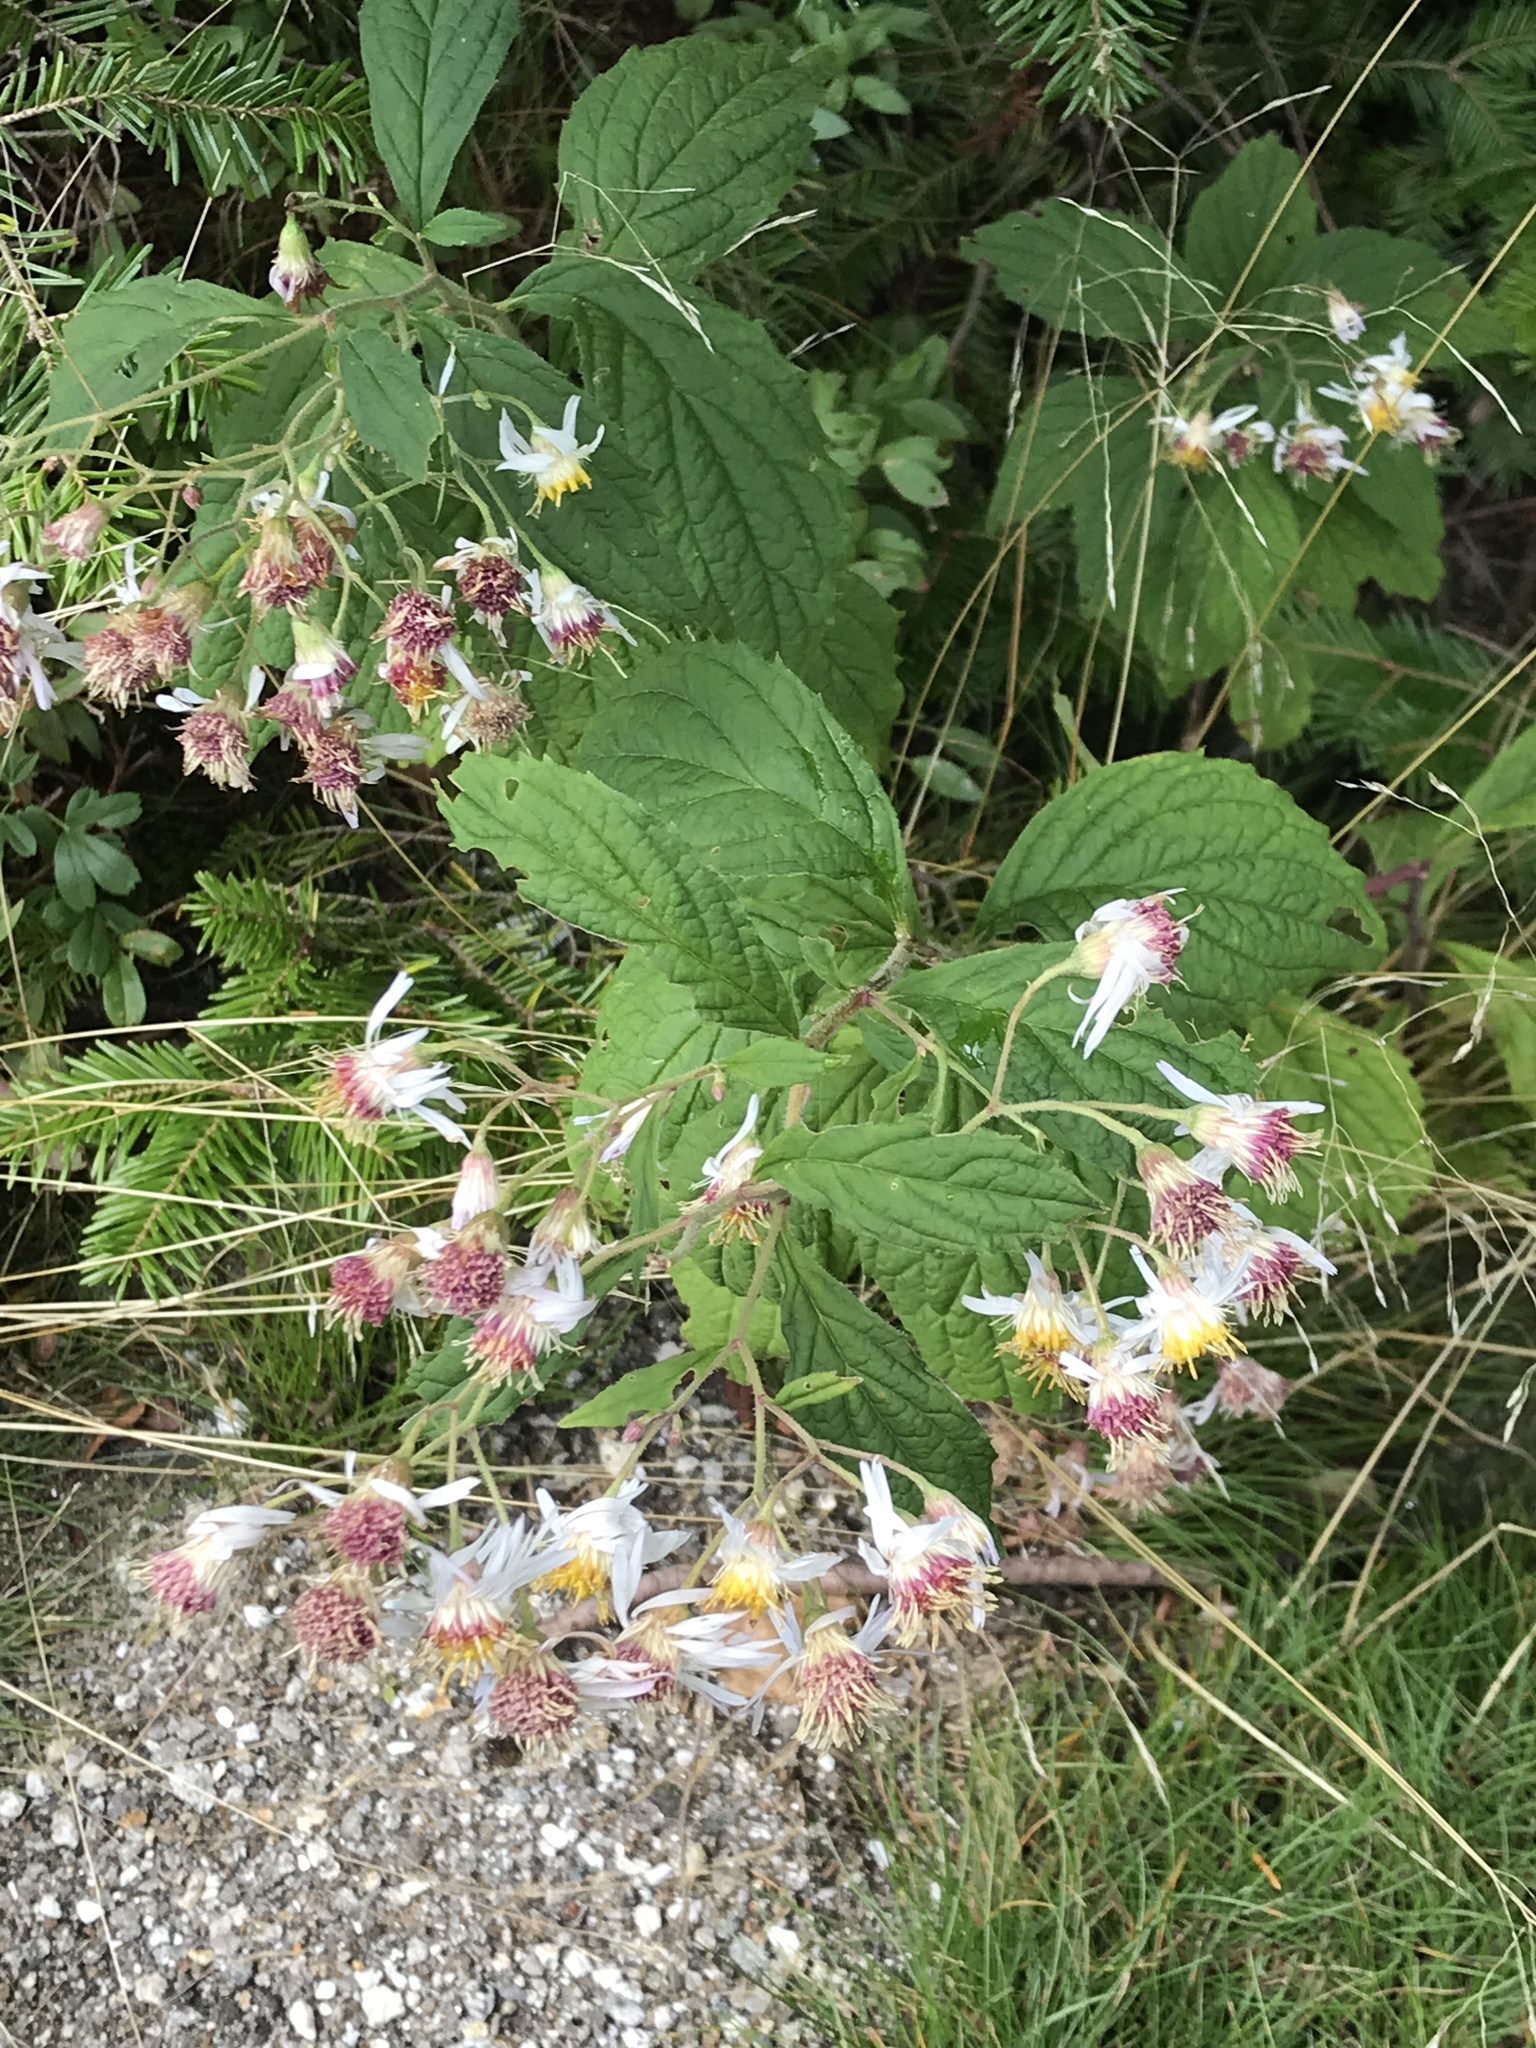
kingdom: Plantae
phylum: Tracheophyta
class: Magnoliopsida
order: Asterales
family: Asteraceae
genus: Oclemena
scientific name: Oclemena acuminata
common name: Mountain aster
